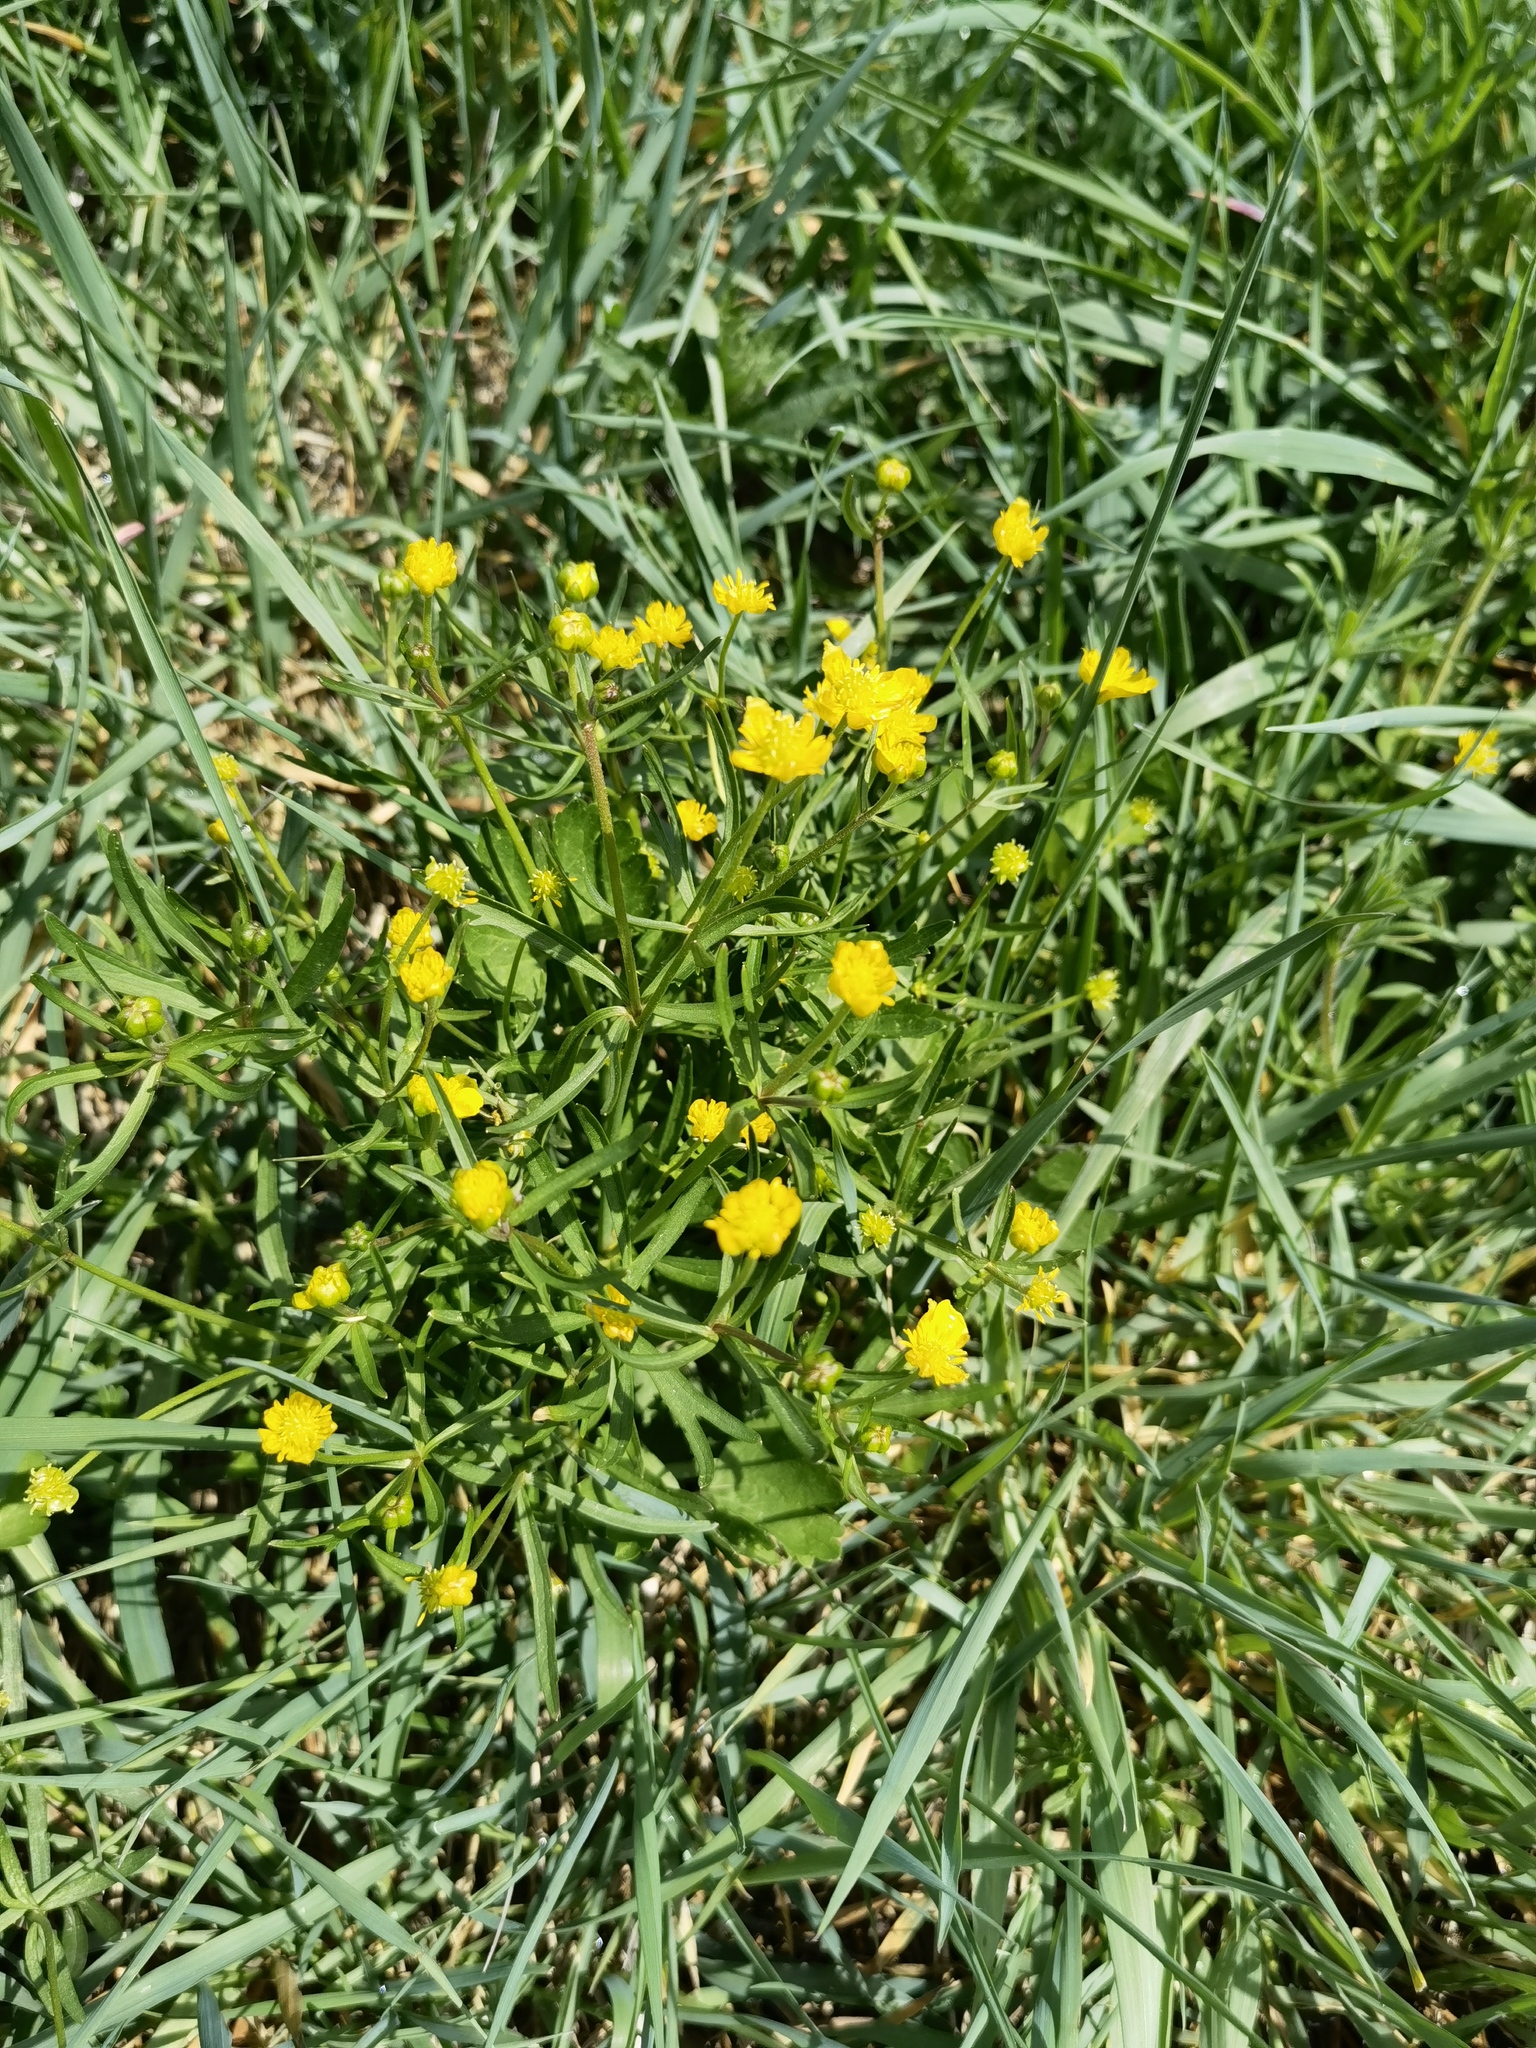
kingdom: Plantae
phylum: Tracheophyta
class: Magnoliopsida
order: Ranunculales
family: Ranunculaceae
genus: Ranunculus
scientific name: Ranunculus auricomus
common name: Goldilocks buttercup
